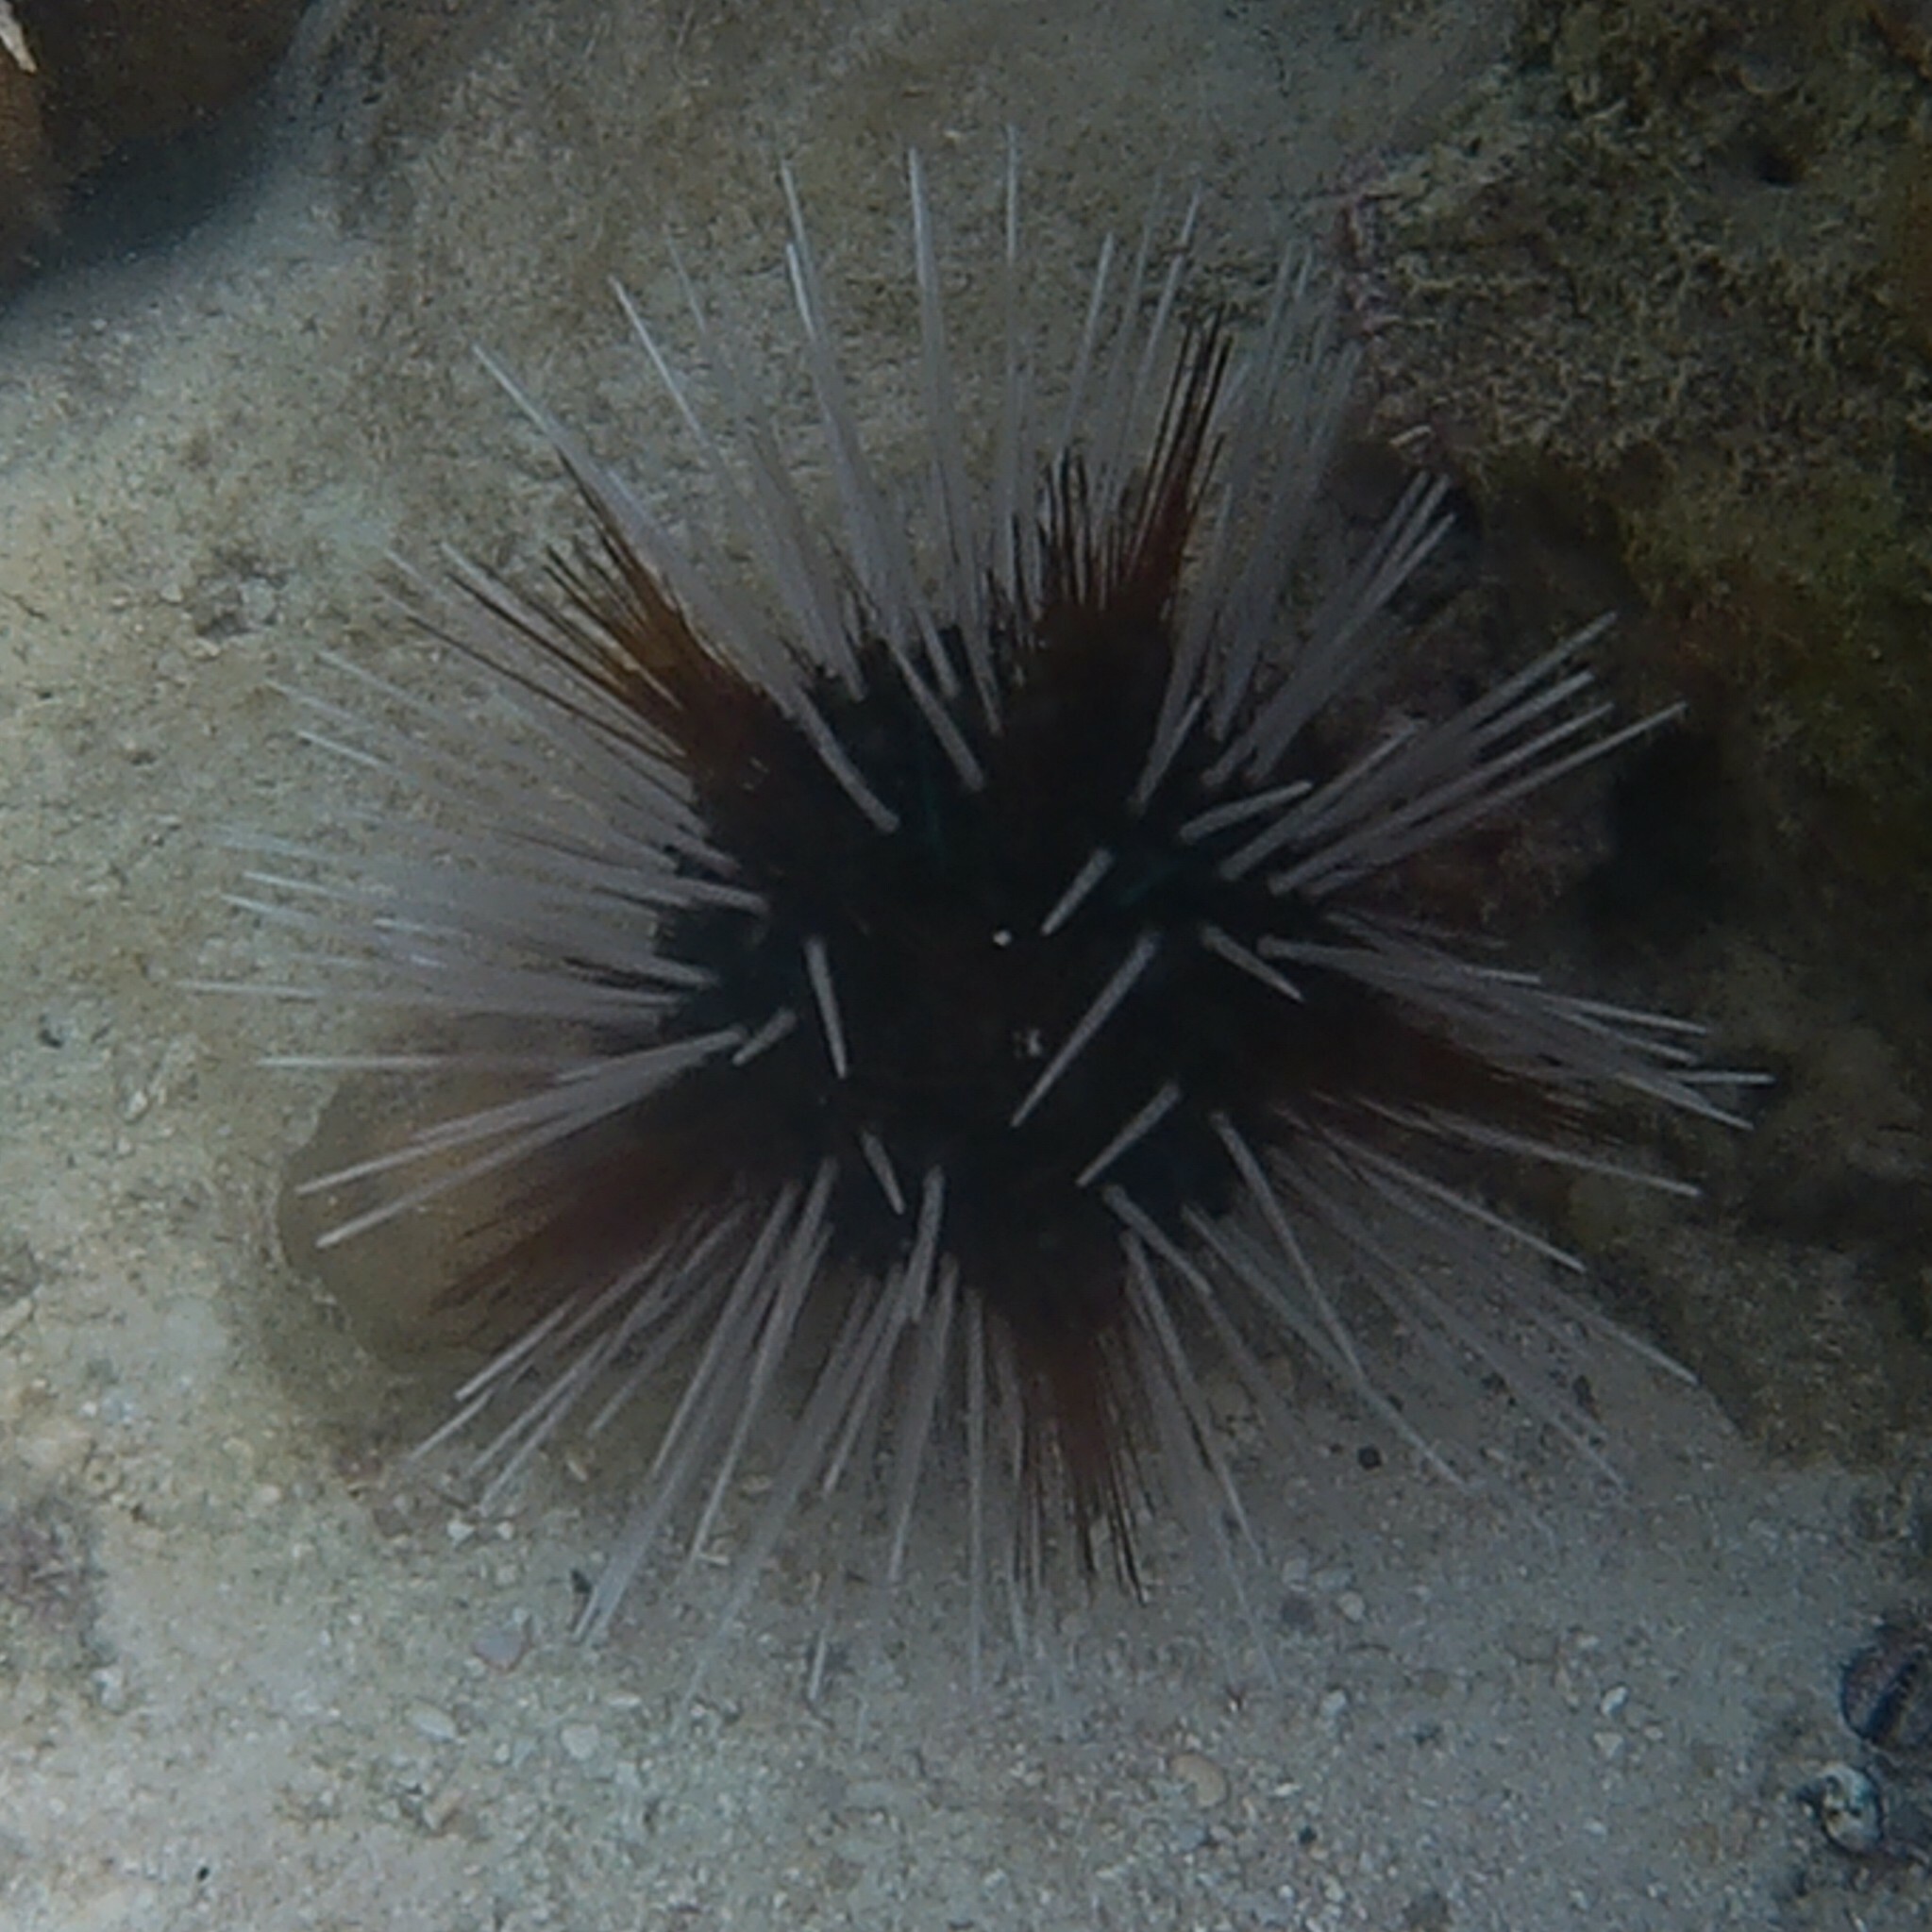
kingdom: Animalia
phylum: Echinodermata
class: Echinoidea
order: Diadematoida
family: Diadematidae
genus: Echinothrix
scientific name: Echinothrix calamaris
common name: Banded sea urchin
